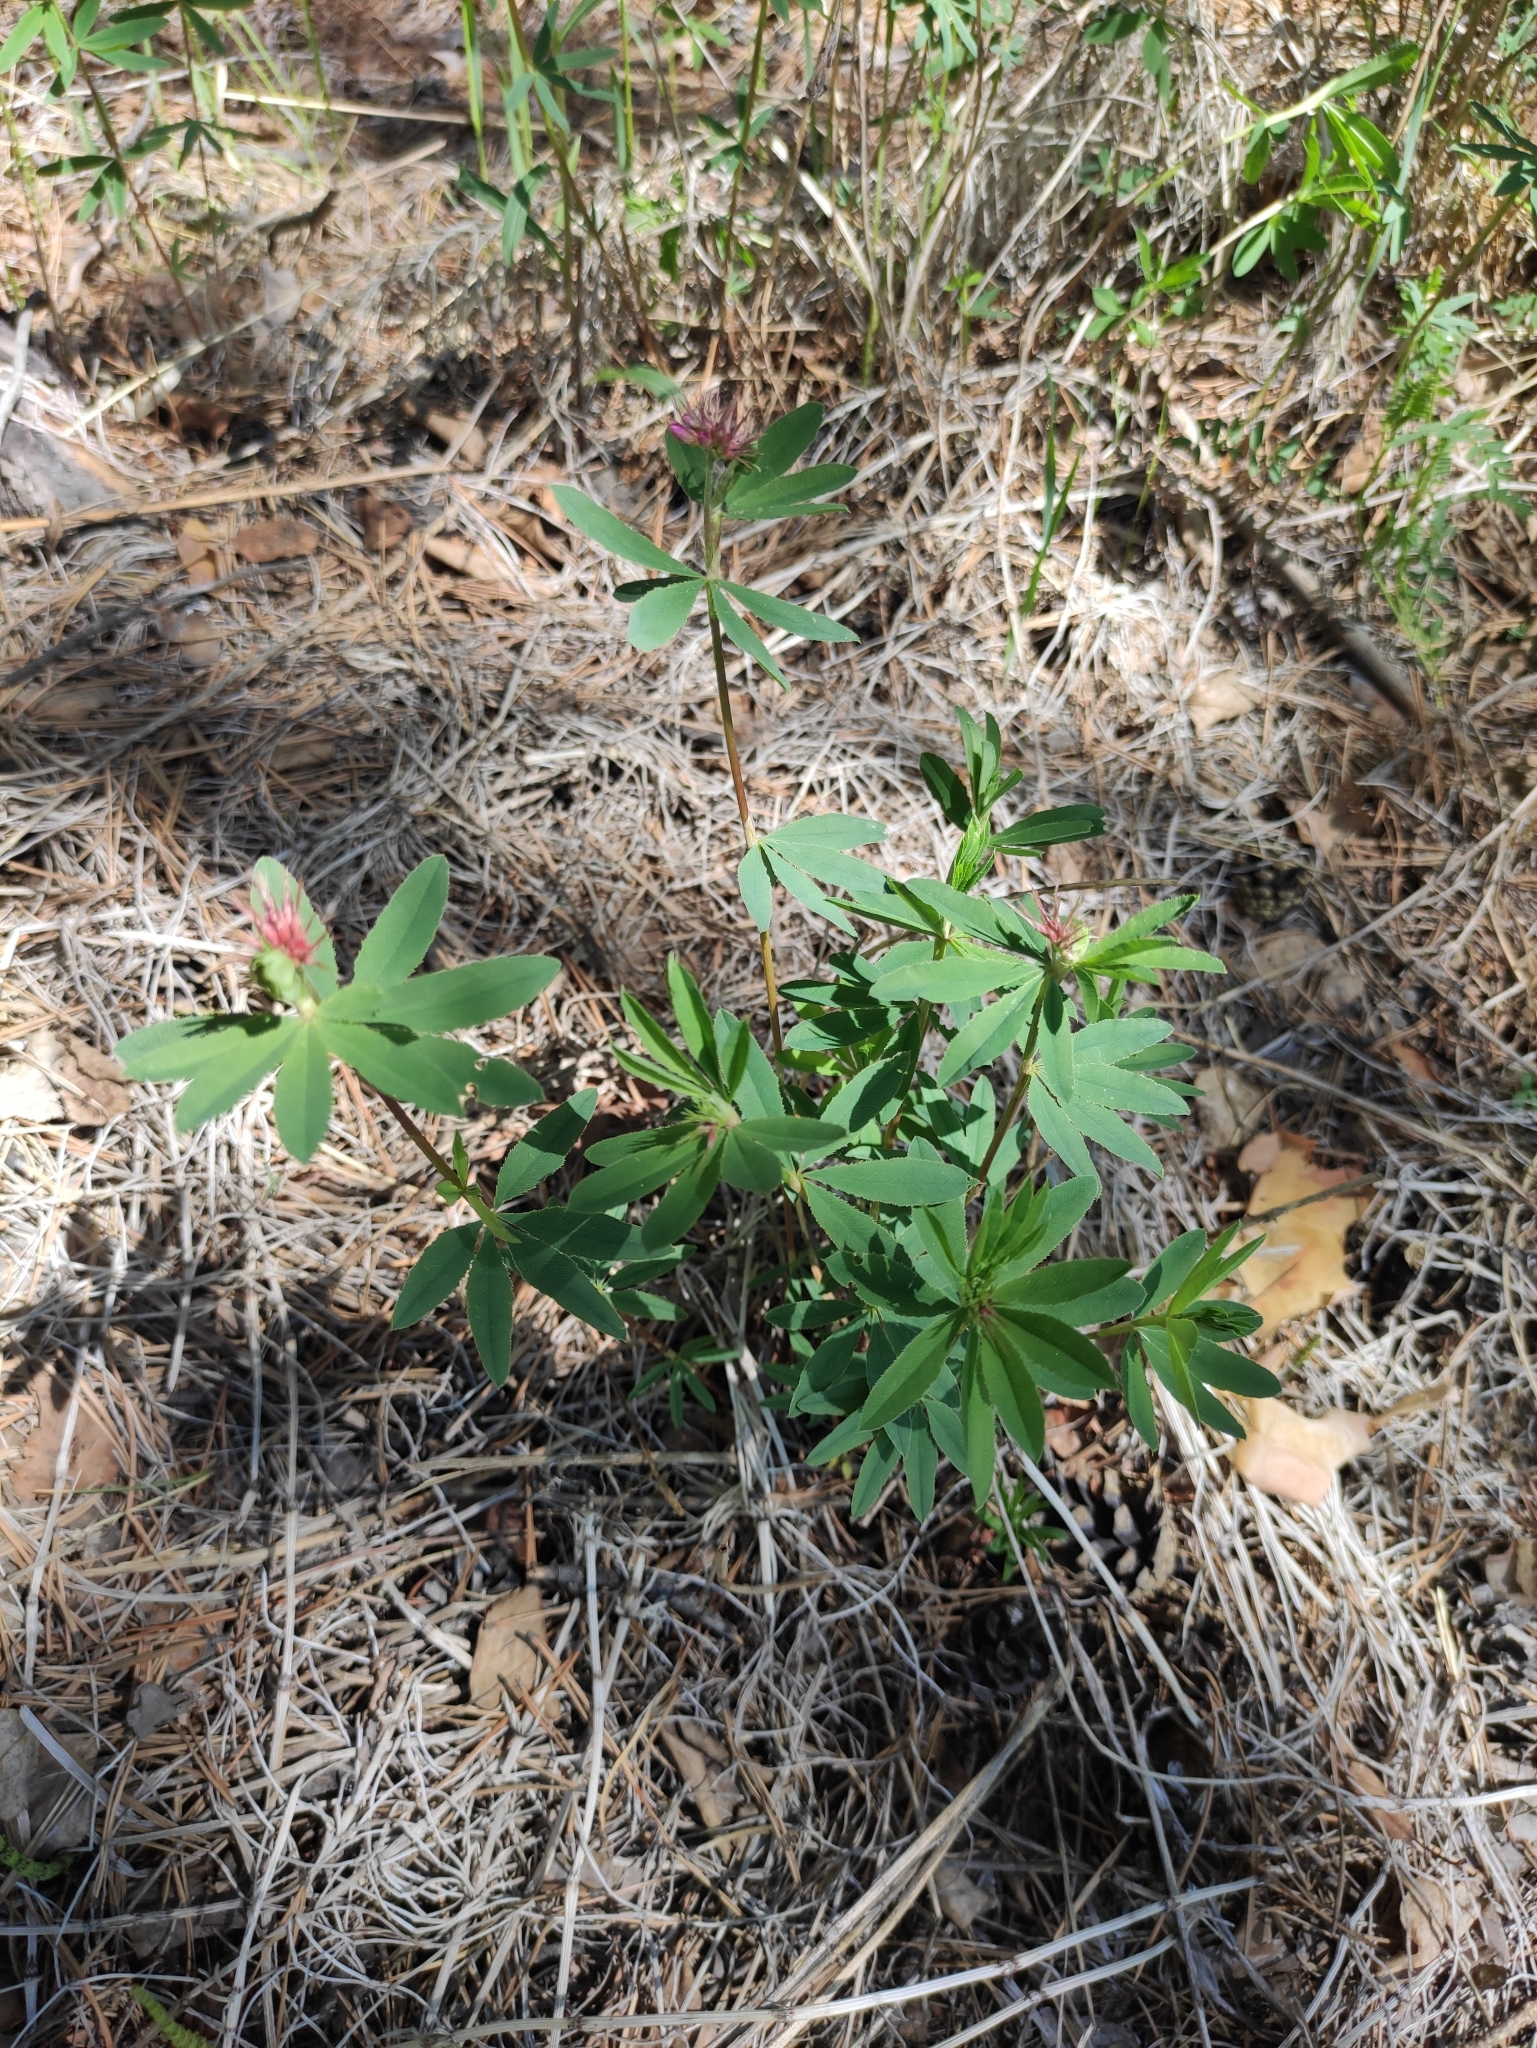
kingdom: Plantae
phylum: Tracheophyta
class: Magnoliopsida
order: Fabales
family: Fabaceae
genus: Trifolium
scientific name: Trifolium lupinaster
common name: Lupine clover
